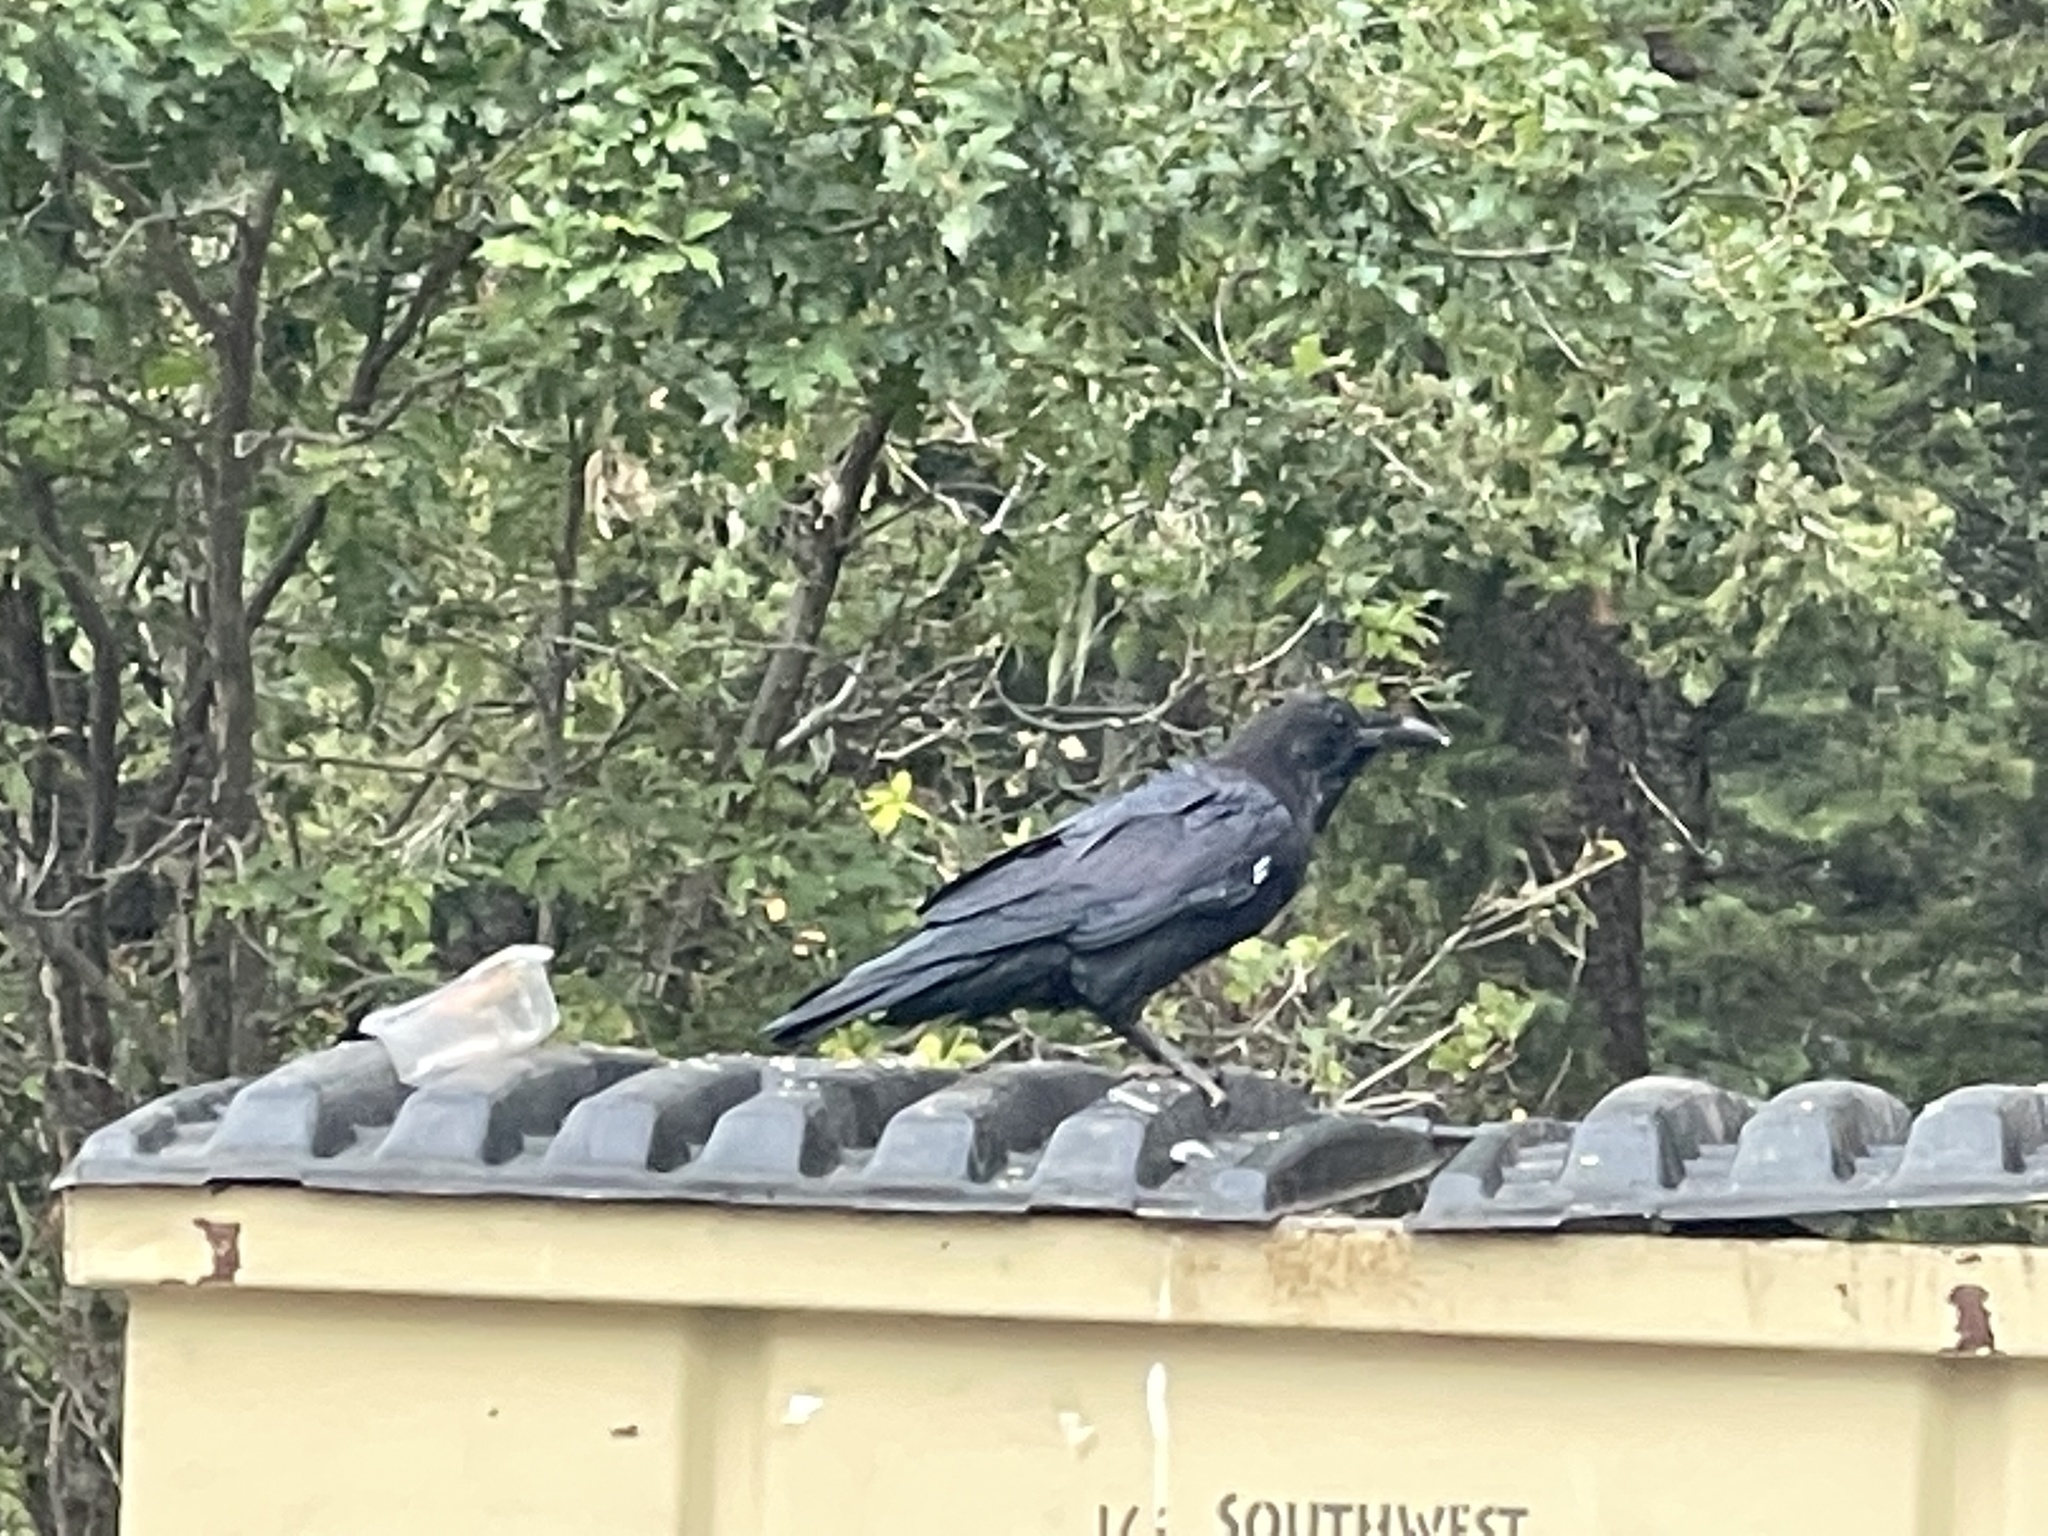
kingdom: Animalia
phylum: Chordata
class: Aves
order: Passeriformes
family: Corvidae
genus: Corvus
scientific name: Corvus corax
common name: Common raven
